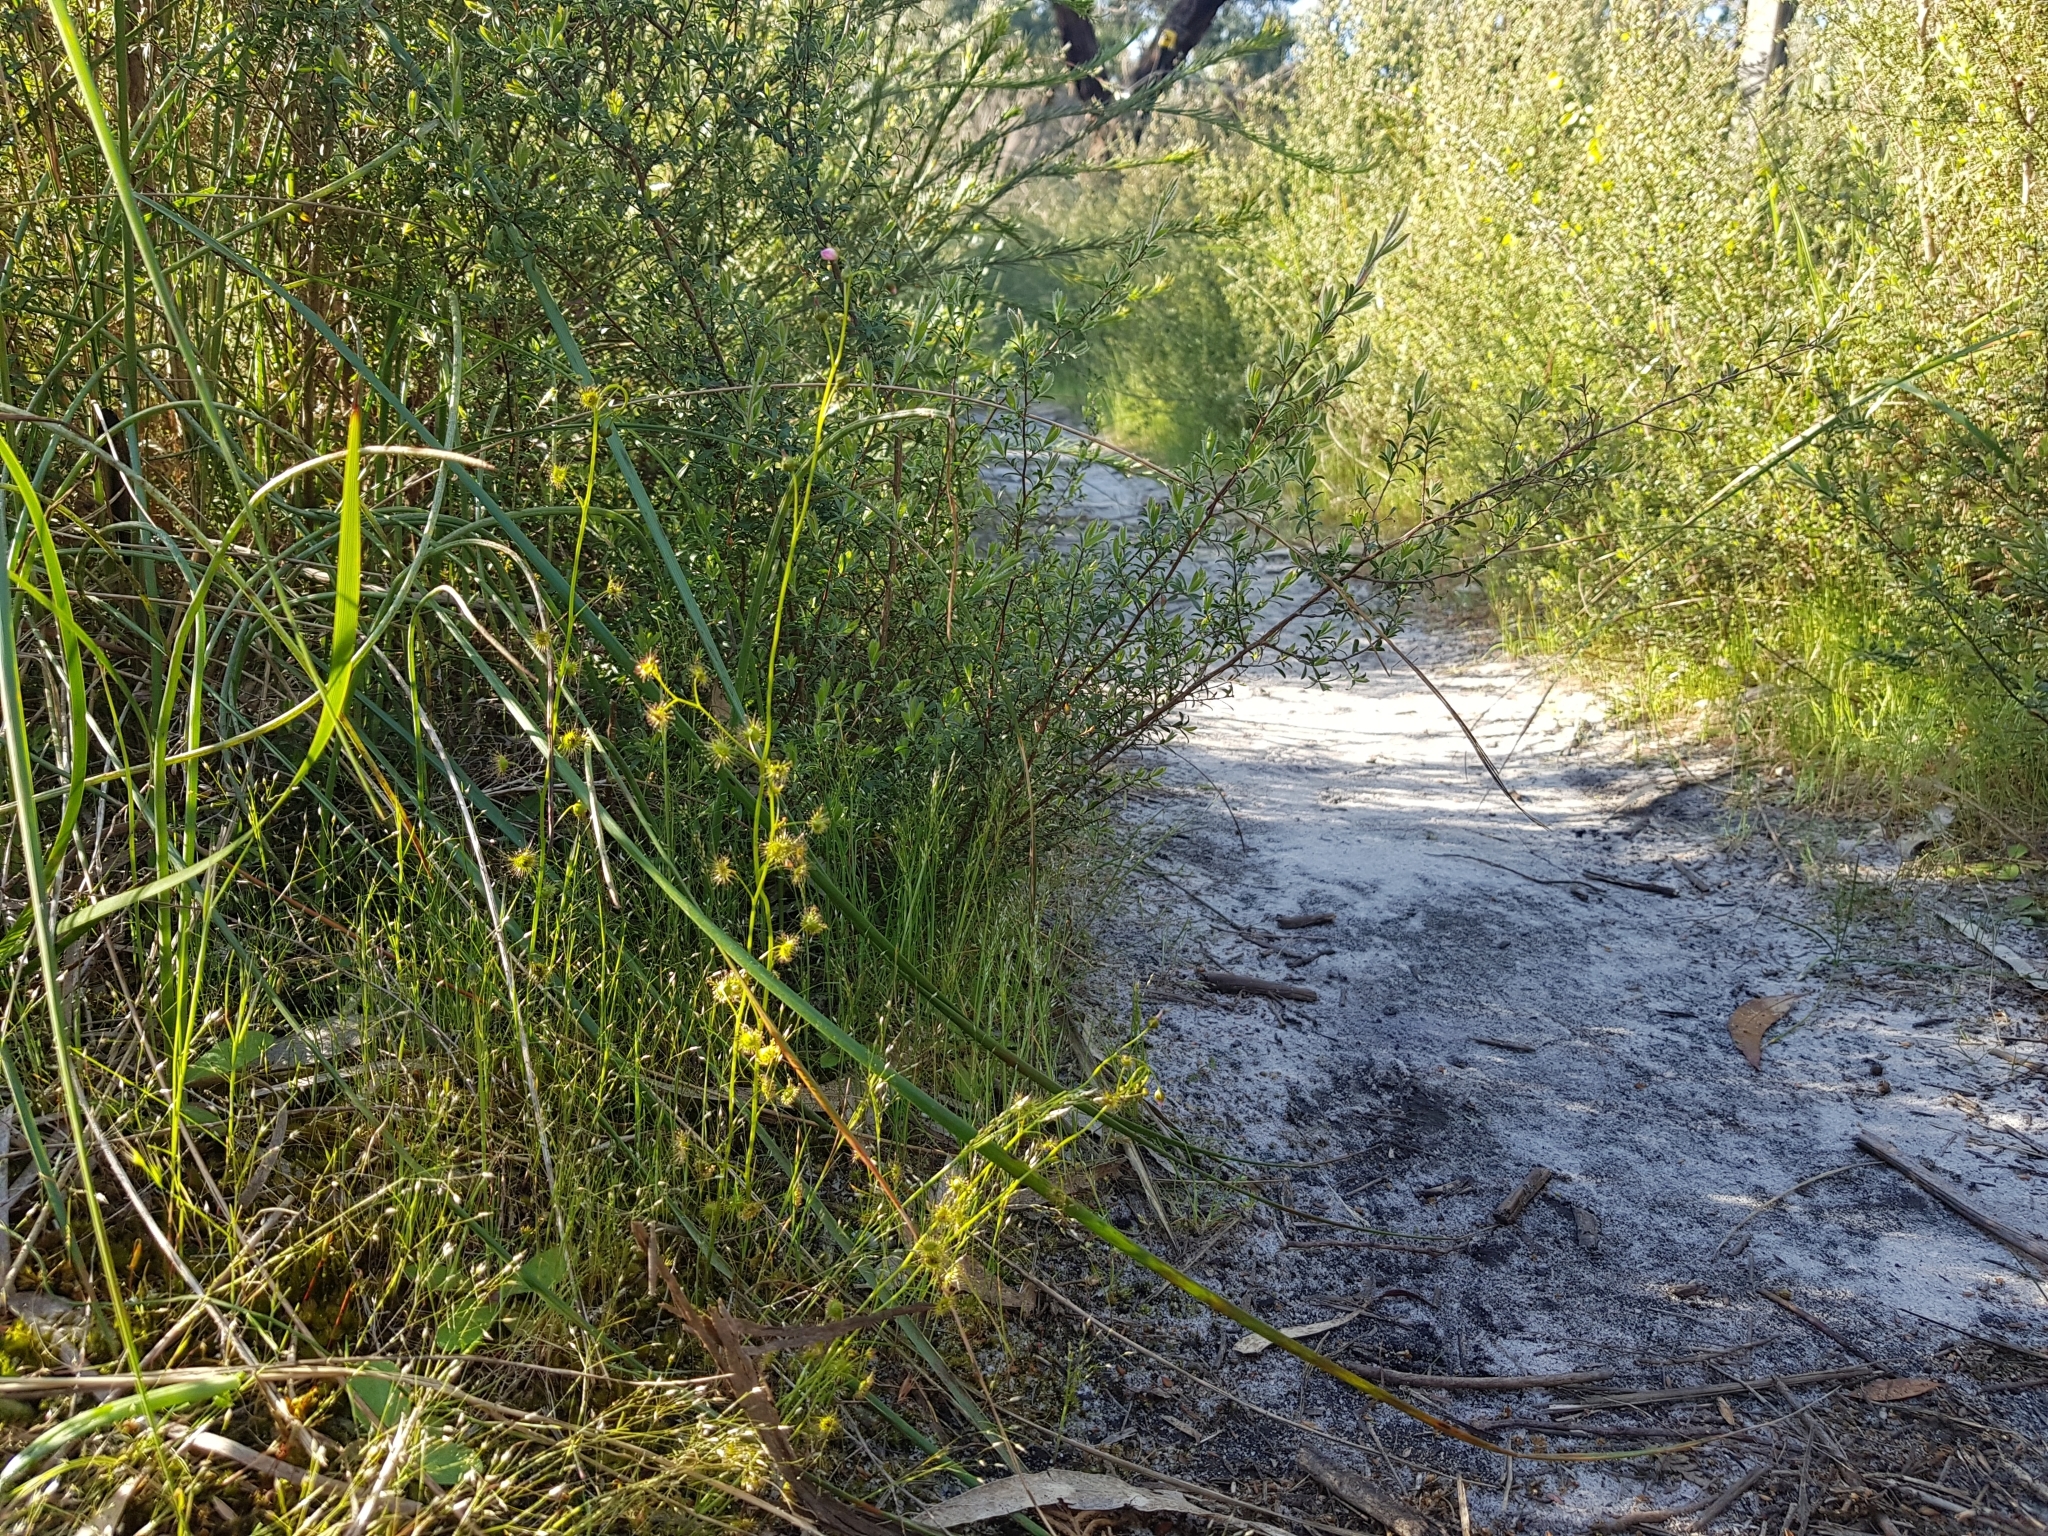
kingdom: Plantae
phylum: Tracheophyta
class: Magnoliopsida
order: Caryophyllales
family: Droseraceae
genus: Drosera
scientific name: Drosera peltata
